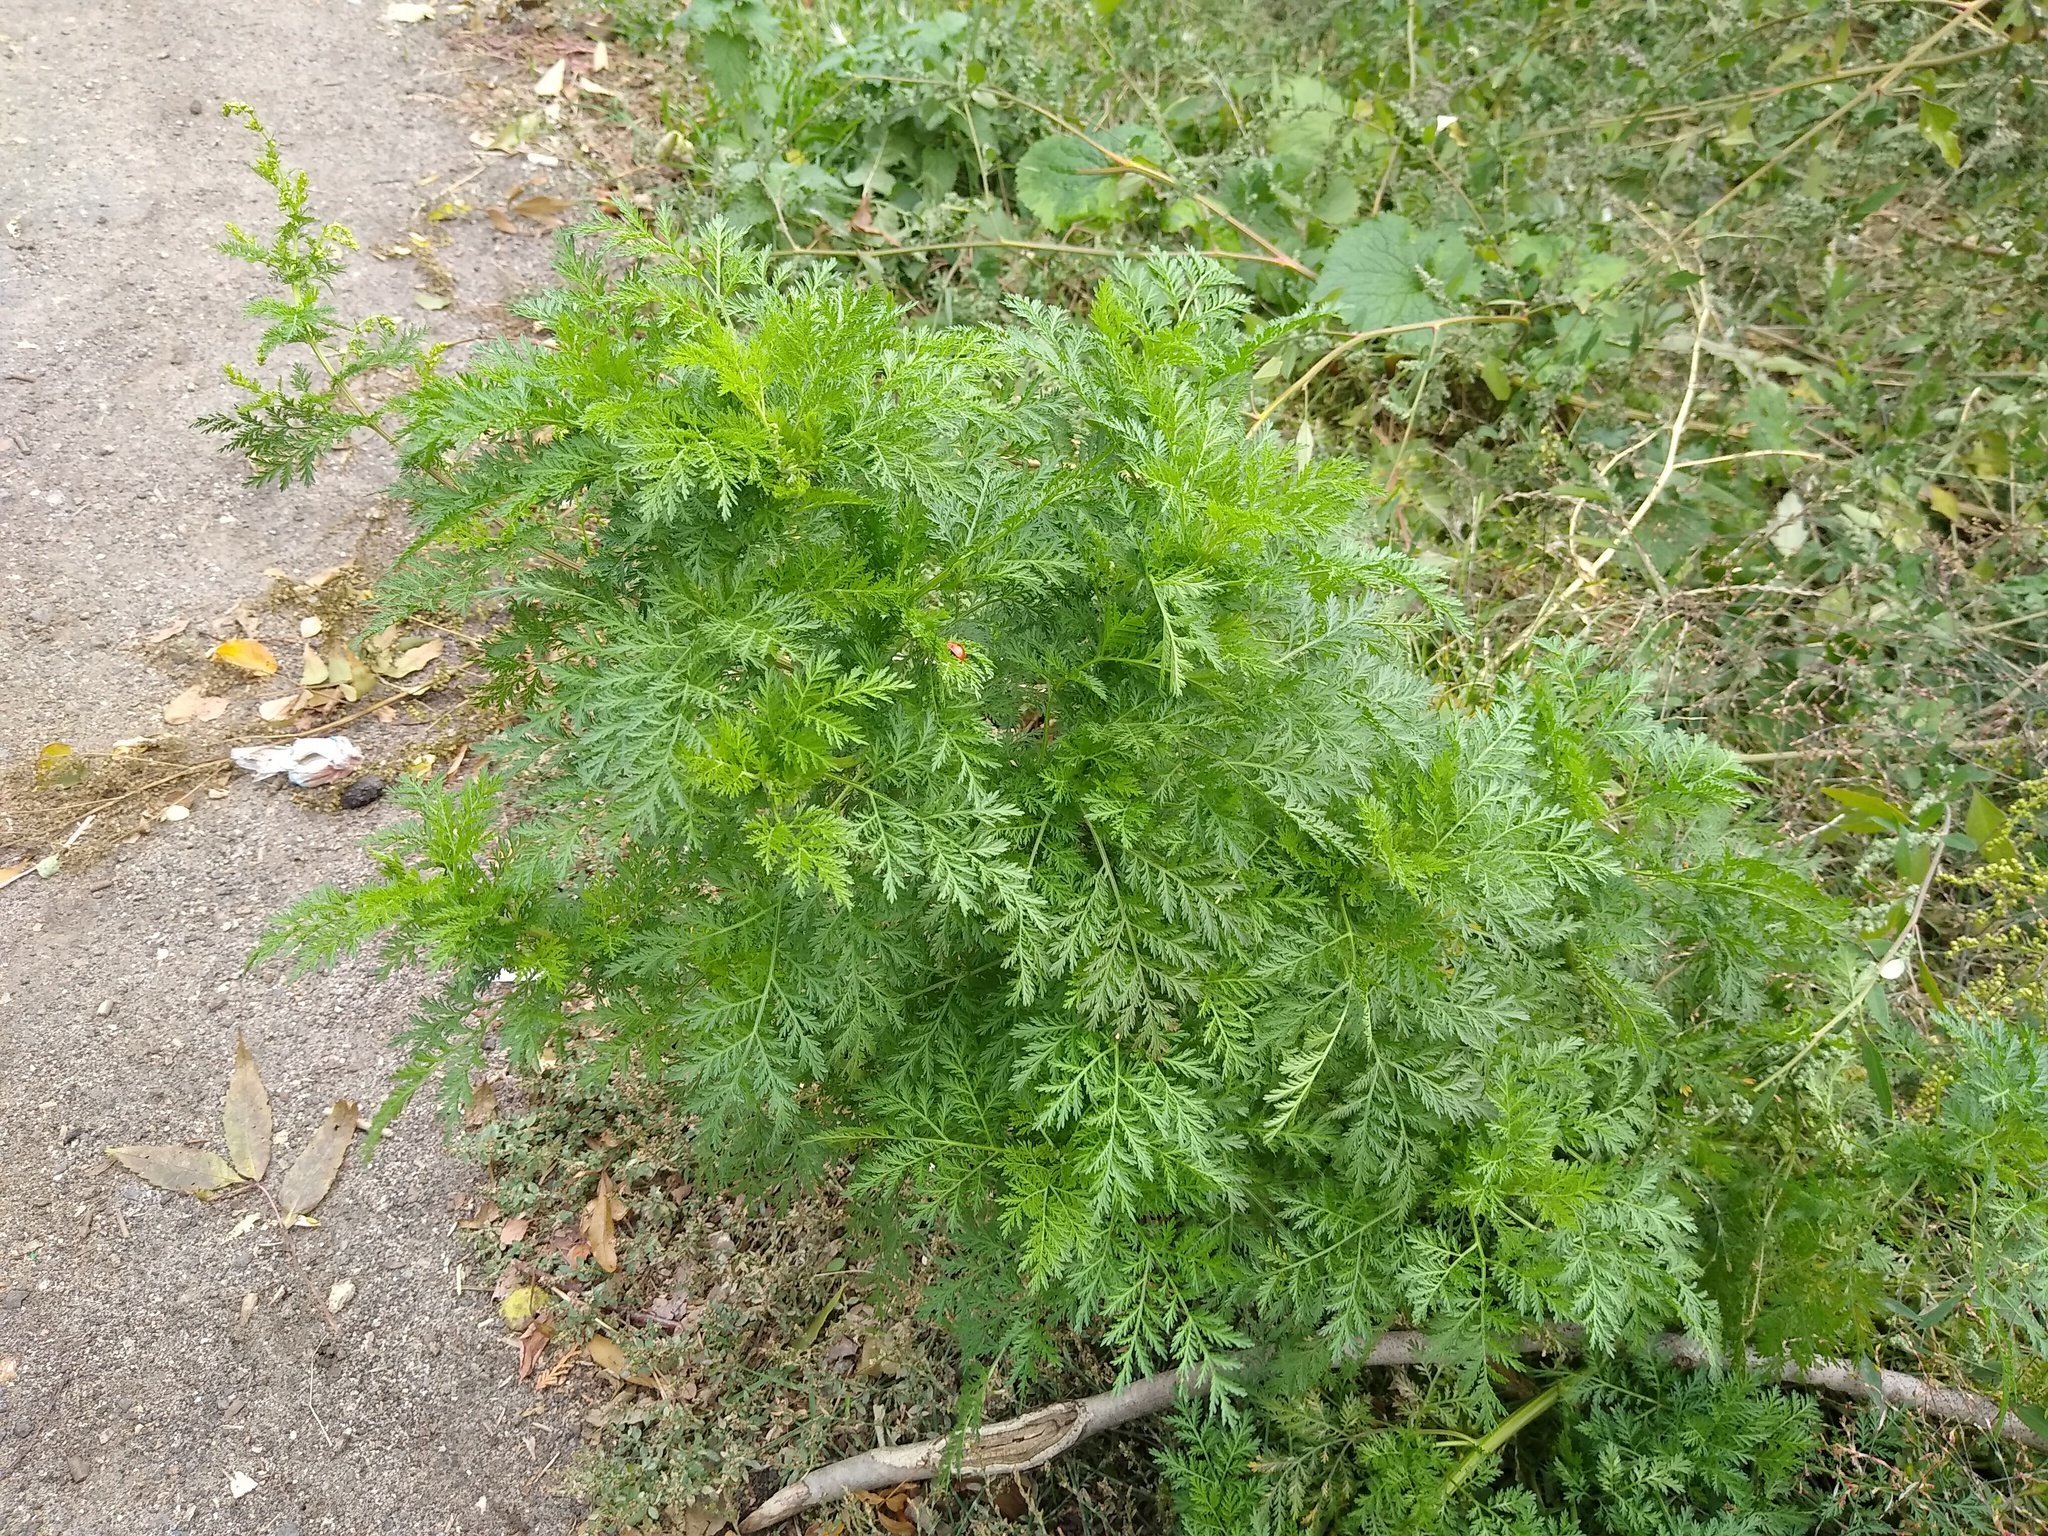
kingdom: Plantae
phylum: Tracheophyta
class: Magnoliopsida
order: Asterales
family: Asteraceae
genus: Artemisia
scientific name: Artemisia annua
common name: Sweet sagewort
